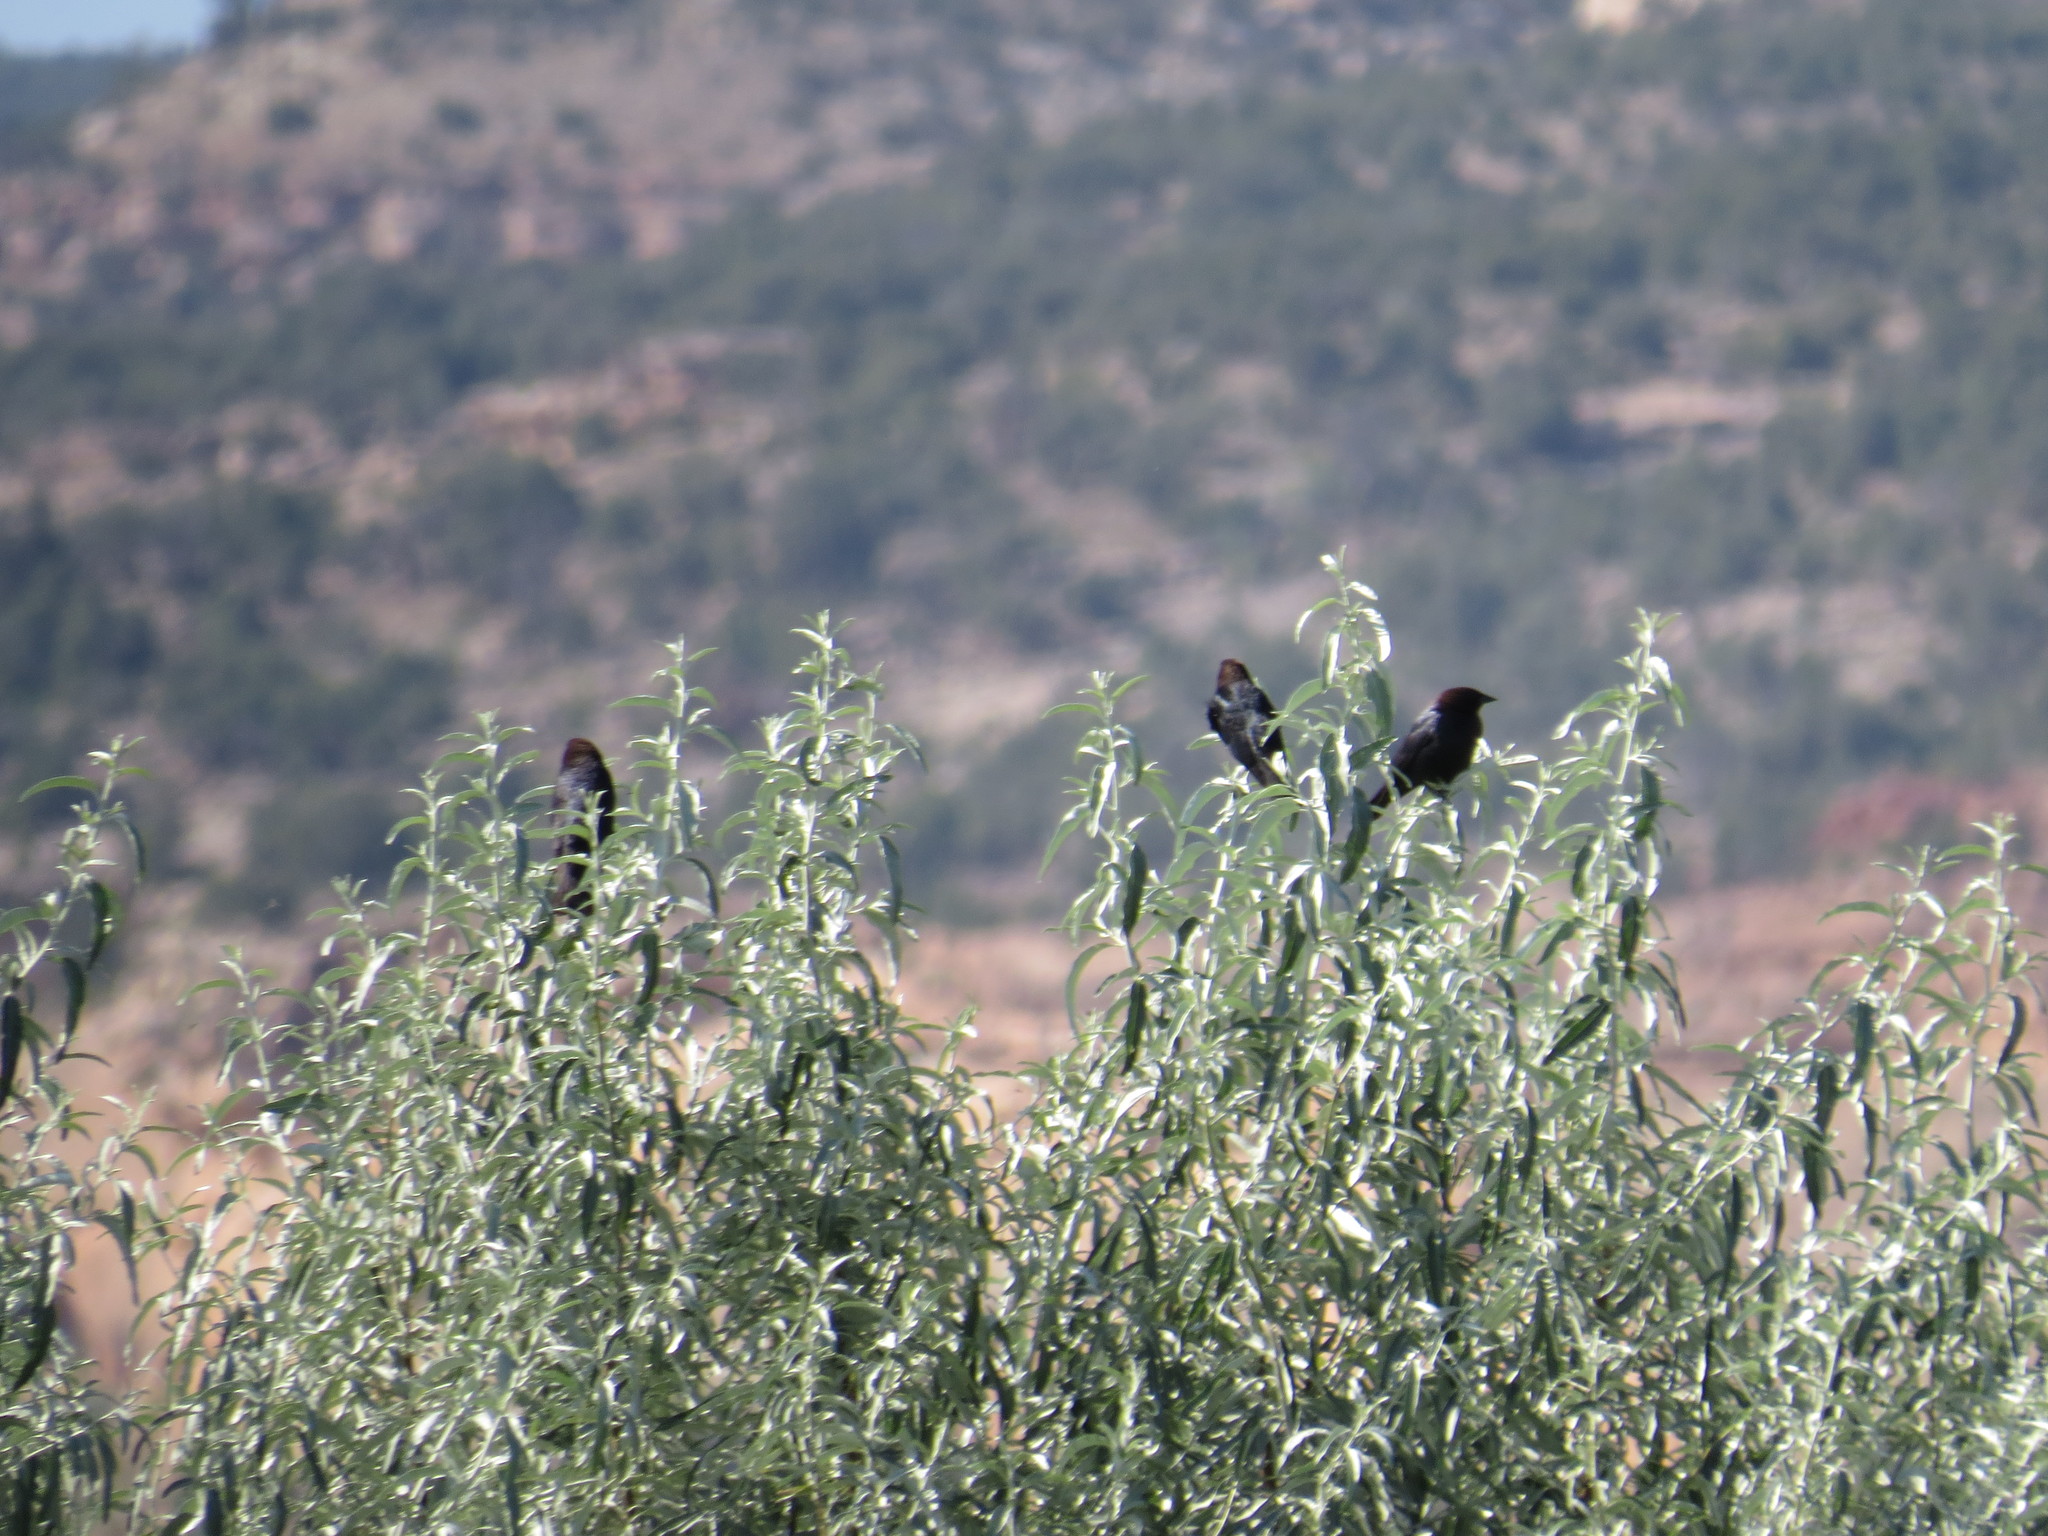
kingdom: Animalia
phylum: Chordata
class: Aves
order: Passeriformes
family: Icteridae
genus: Molothrus
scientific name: Molothrus ater
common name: Brown-headed cowbird
